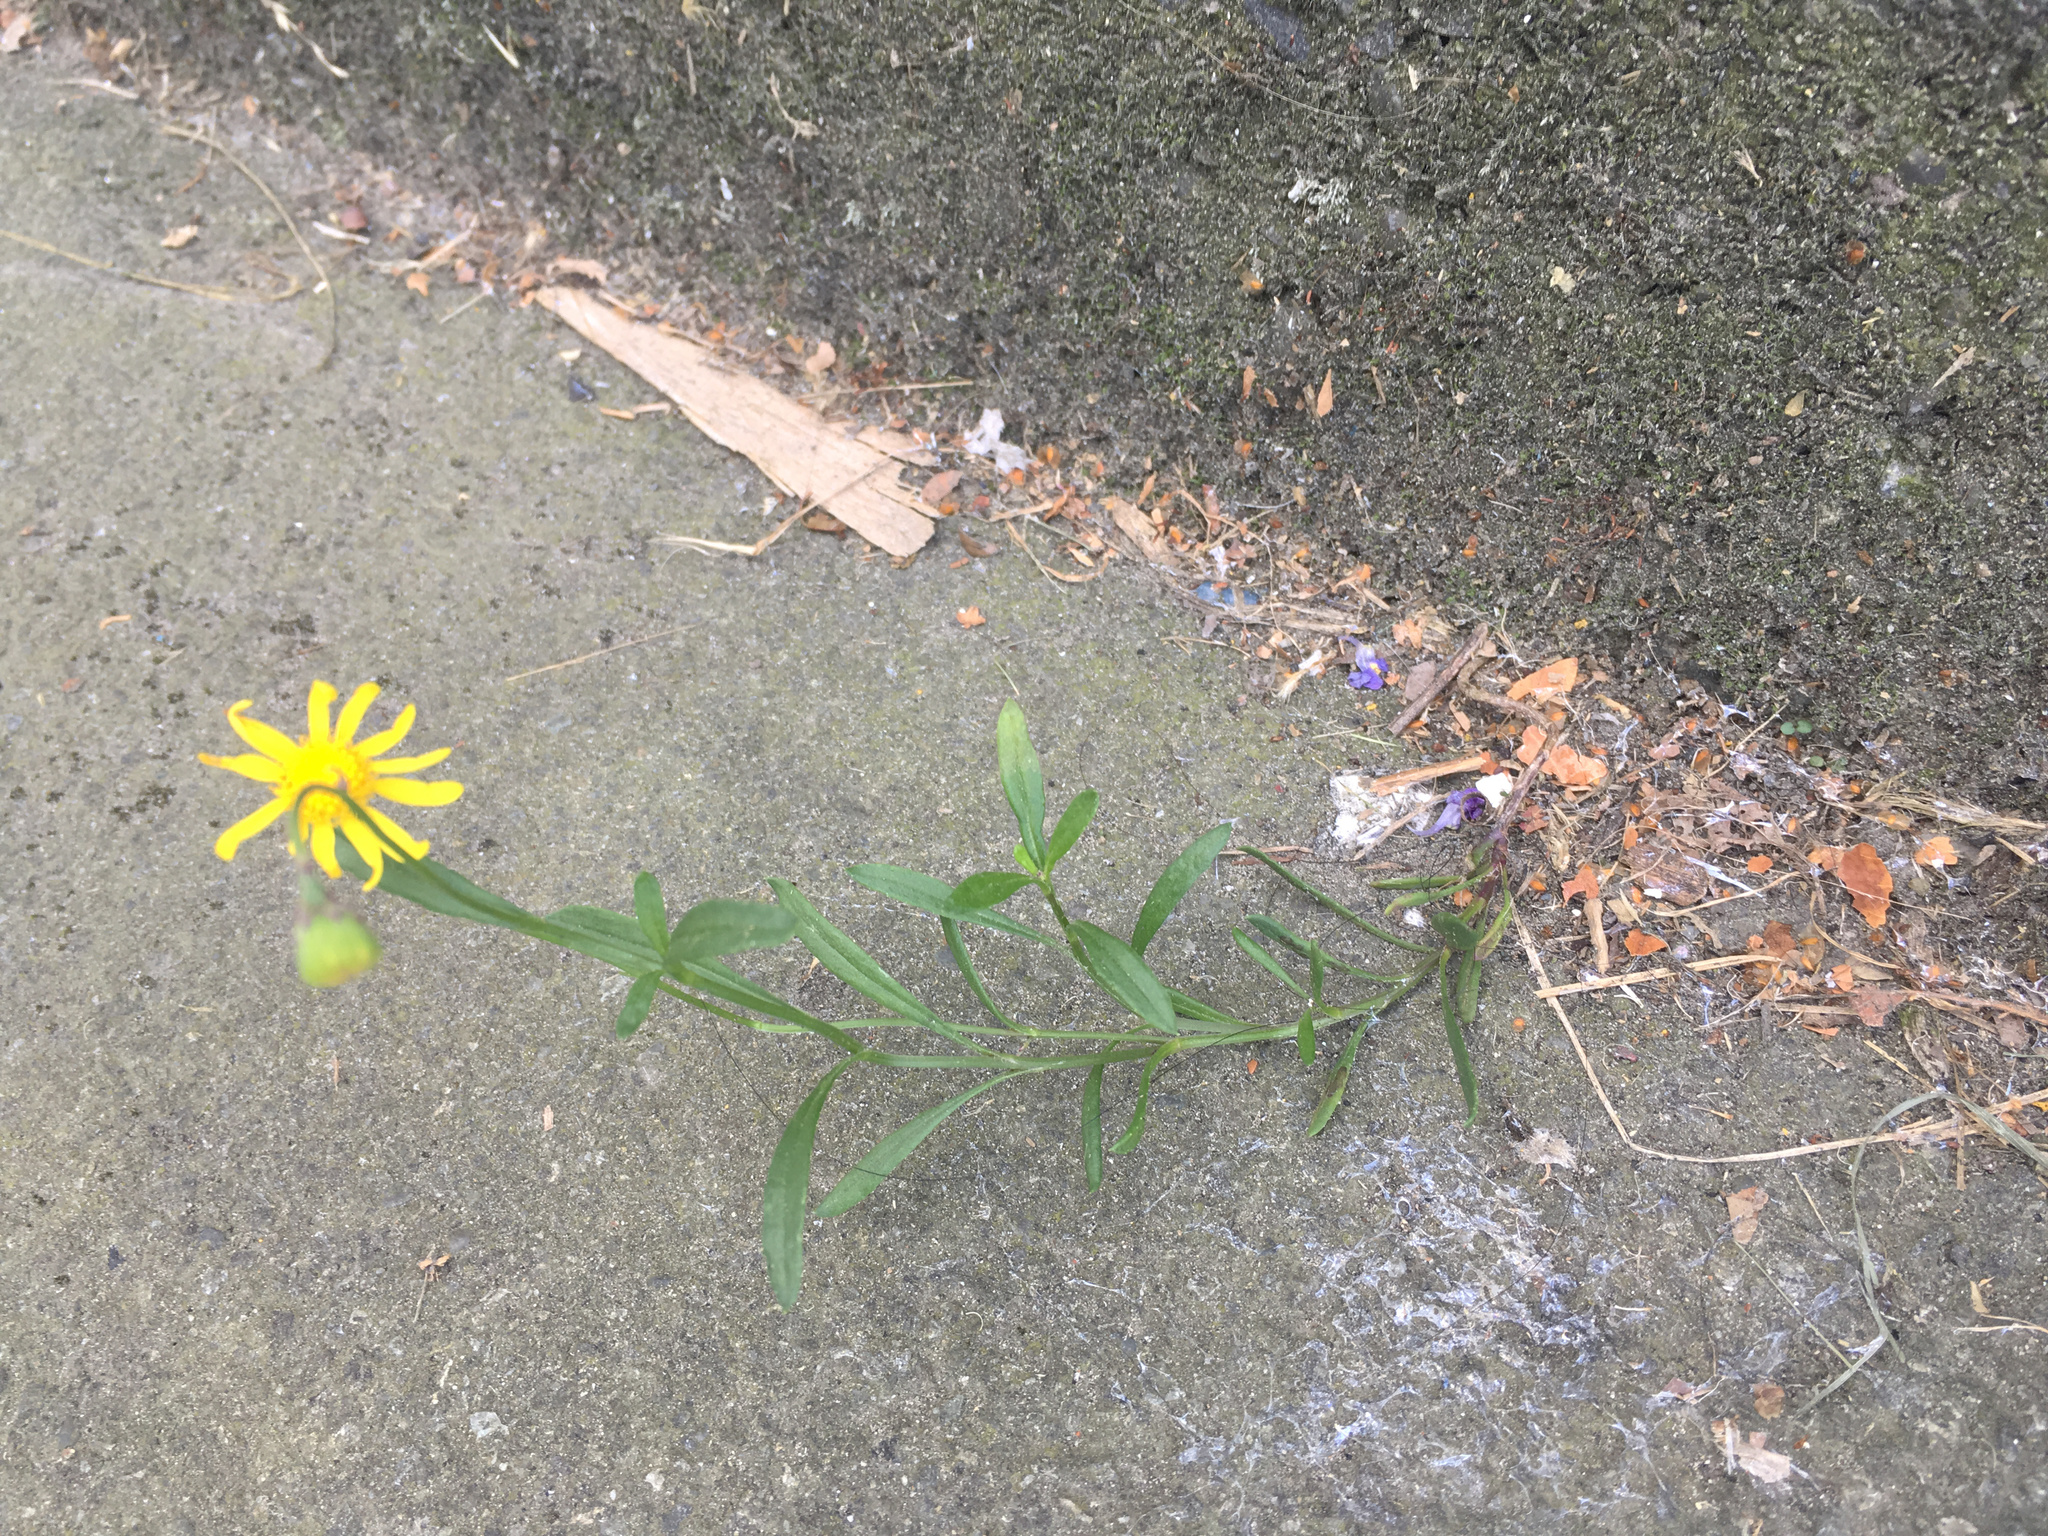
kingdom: Plantae
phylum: Tracheophyta
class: Magnoliopsida
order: Asterales
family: Asteraceae
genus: Senecio
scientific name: Senecio skirrhodon
